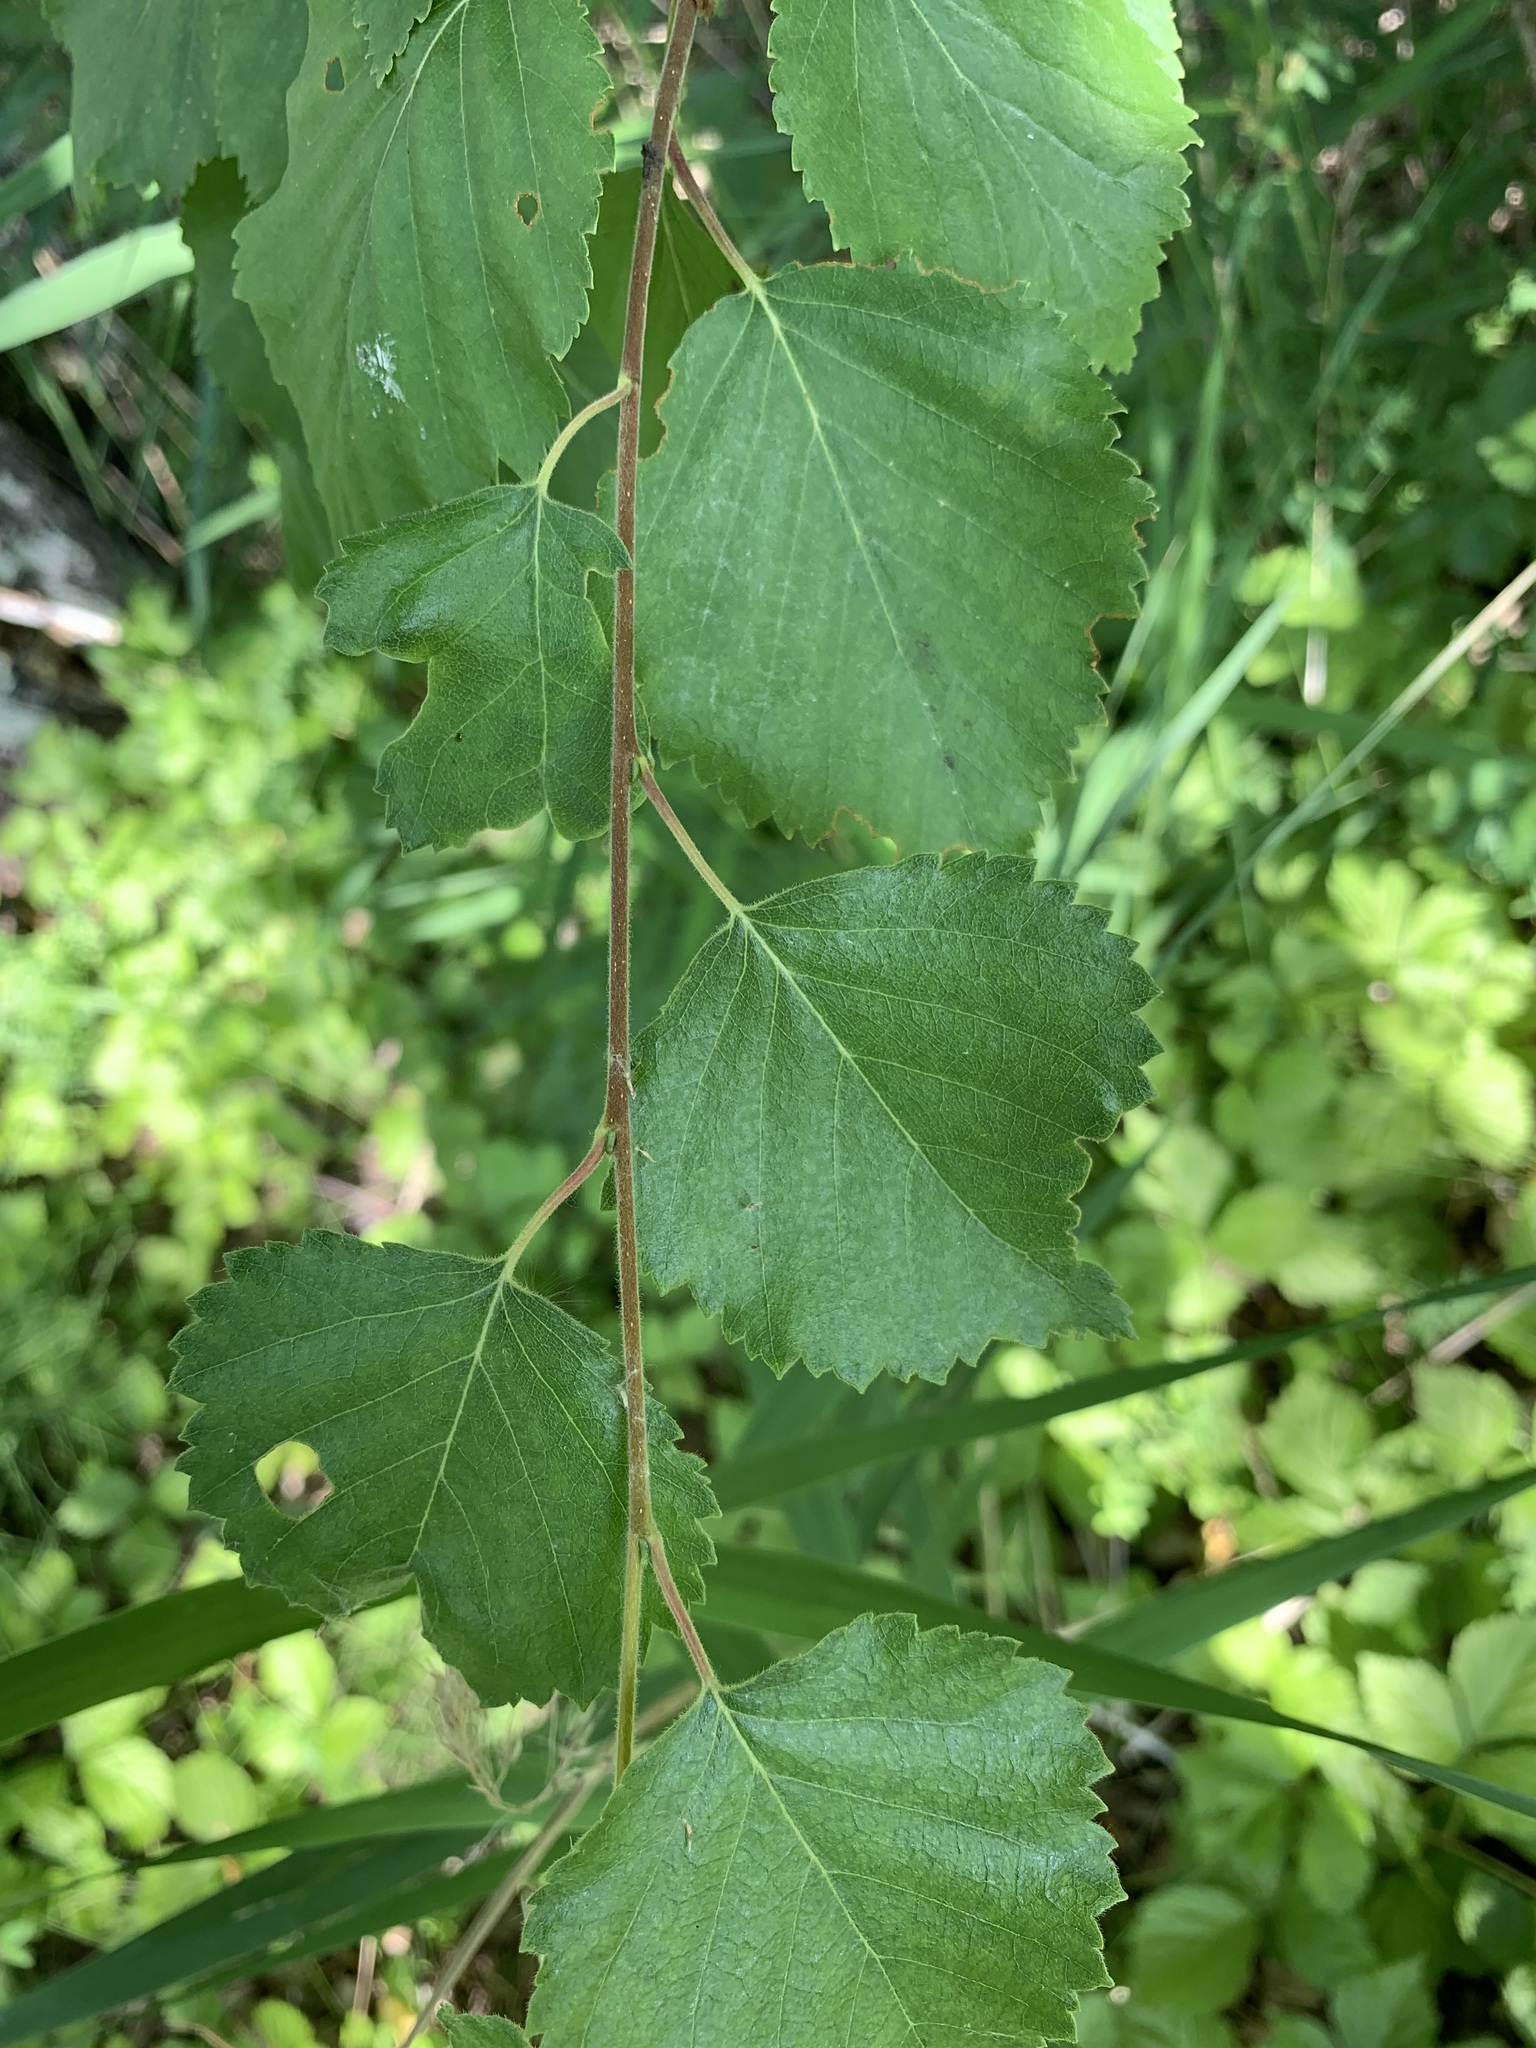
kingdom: Plantae
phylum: Tracheophyta
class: Magnoliopsida
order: Fagales
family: Betulaceae
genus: Betula
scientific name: Betula pubescens
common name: Downy birch
